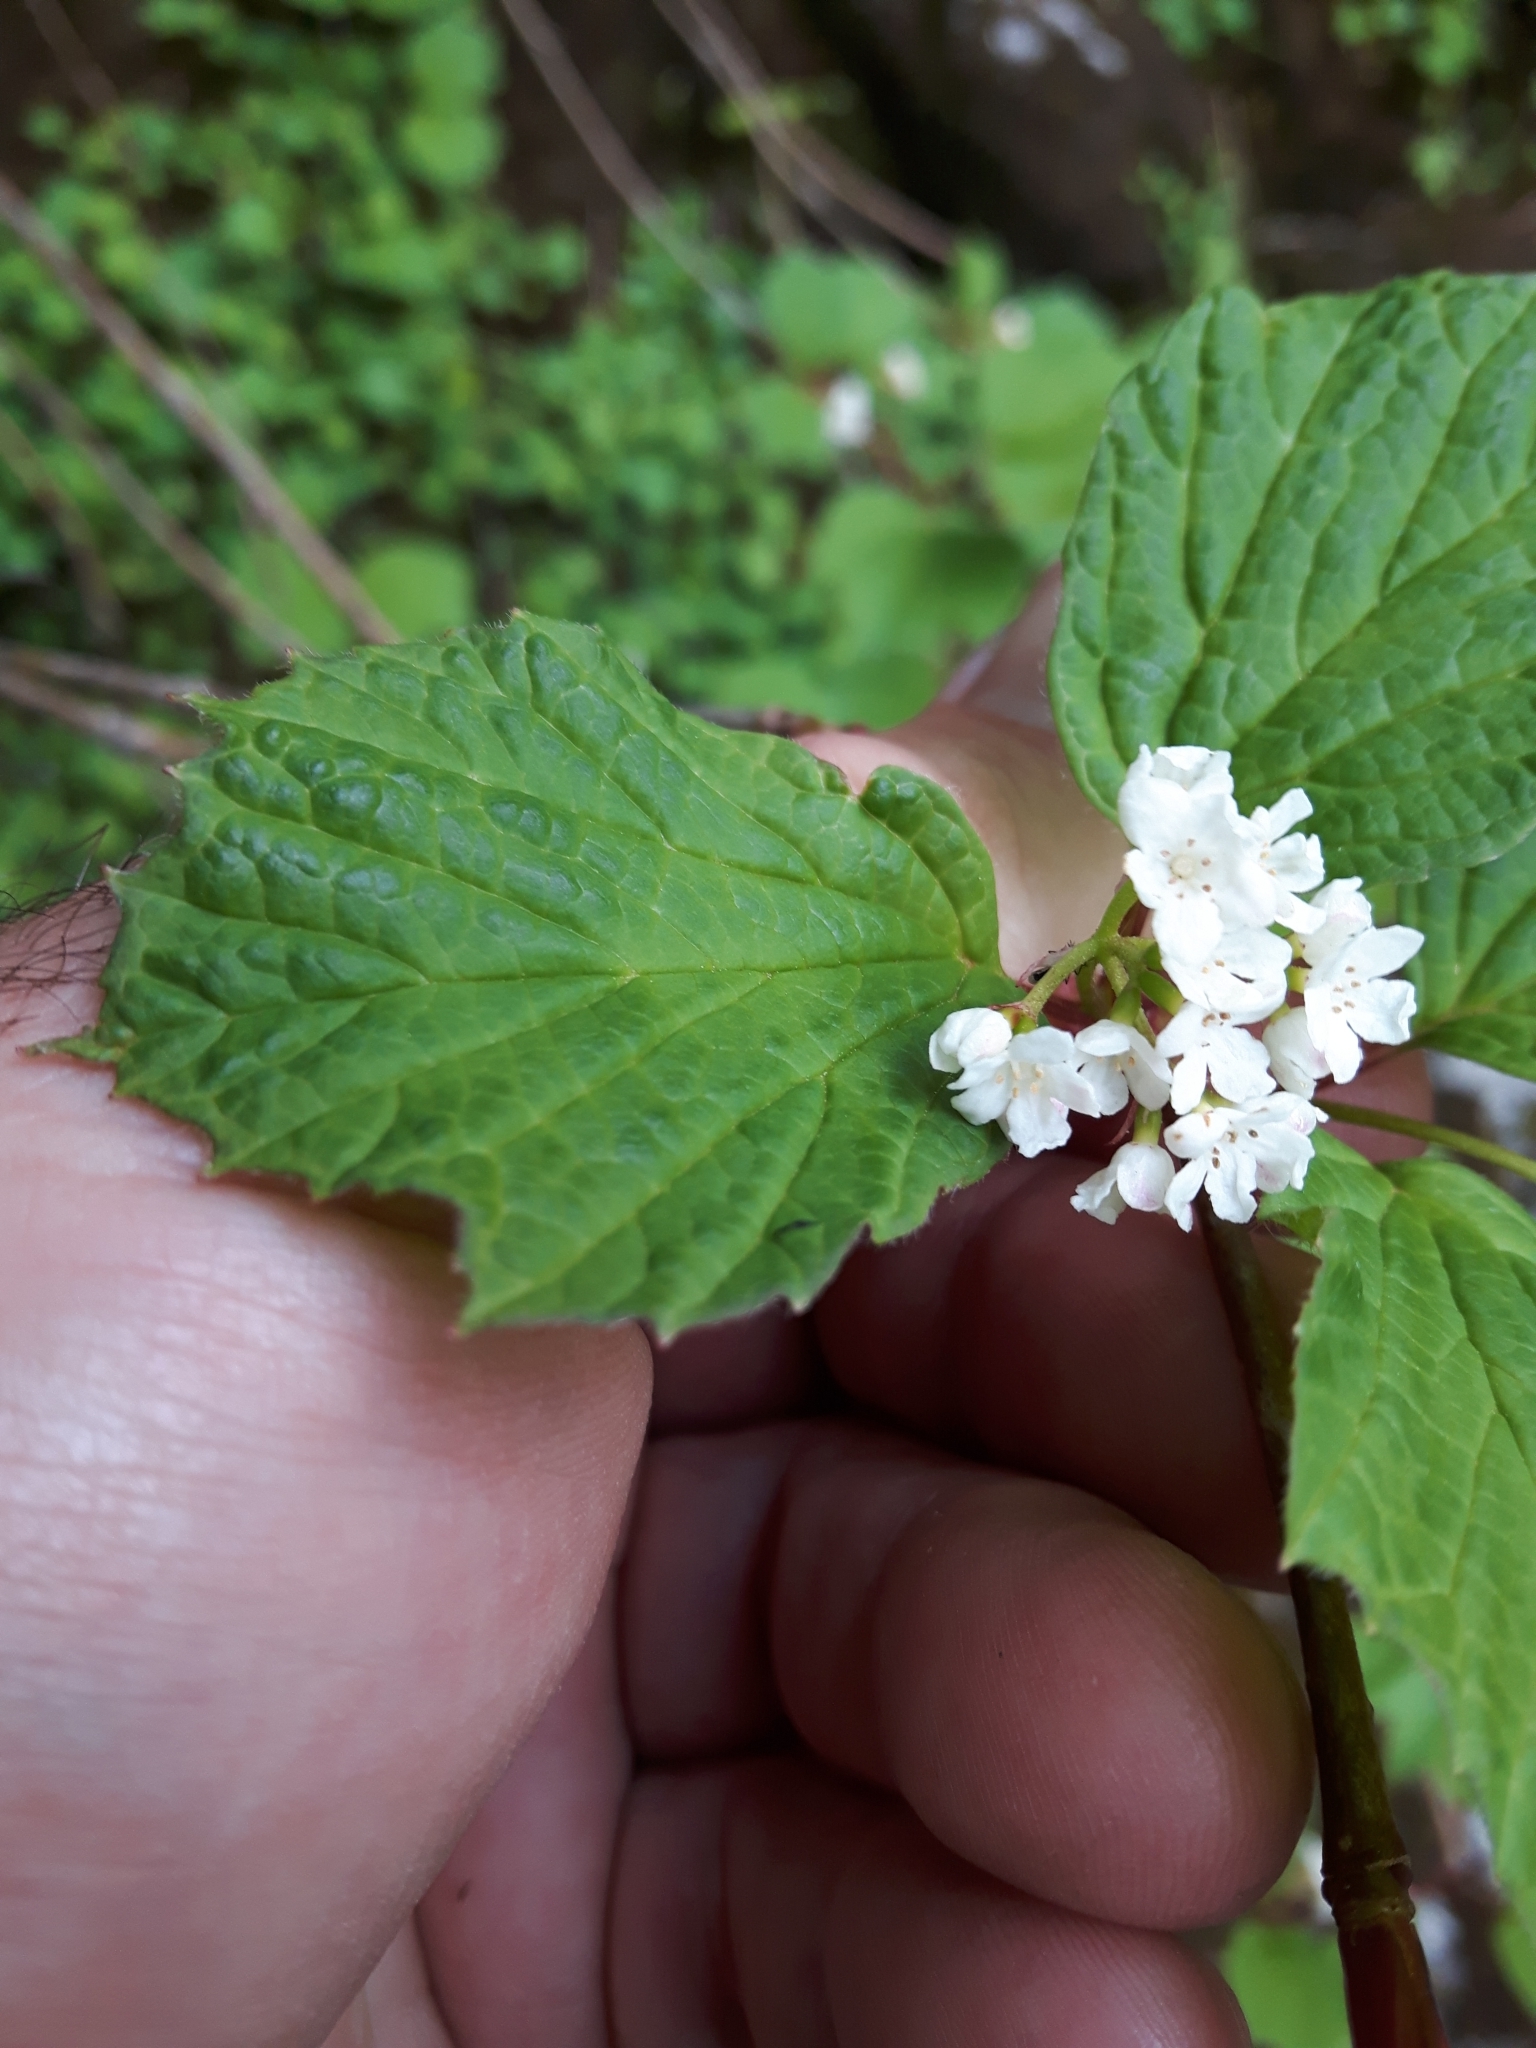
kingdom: Plantae
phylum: Tracheophyta
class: Magnoliopsida
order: Dipsacales
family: Viburnaceae
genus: Viburnum
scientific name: Viburnum edule
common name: Mooseberry
